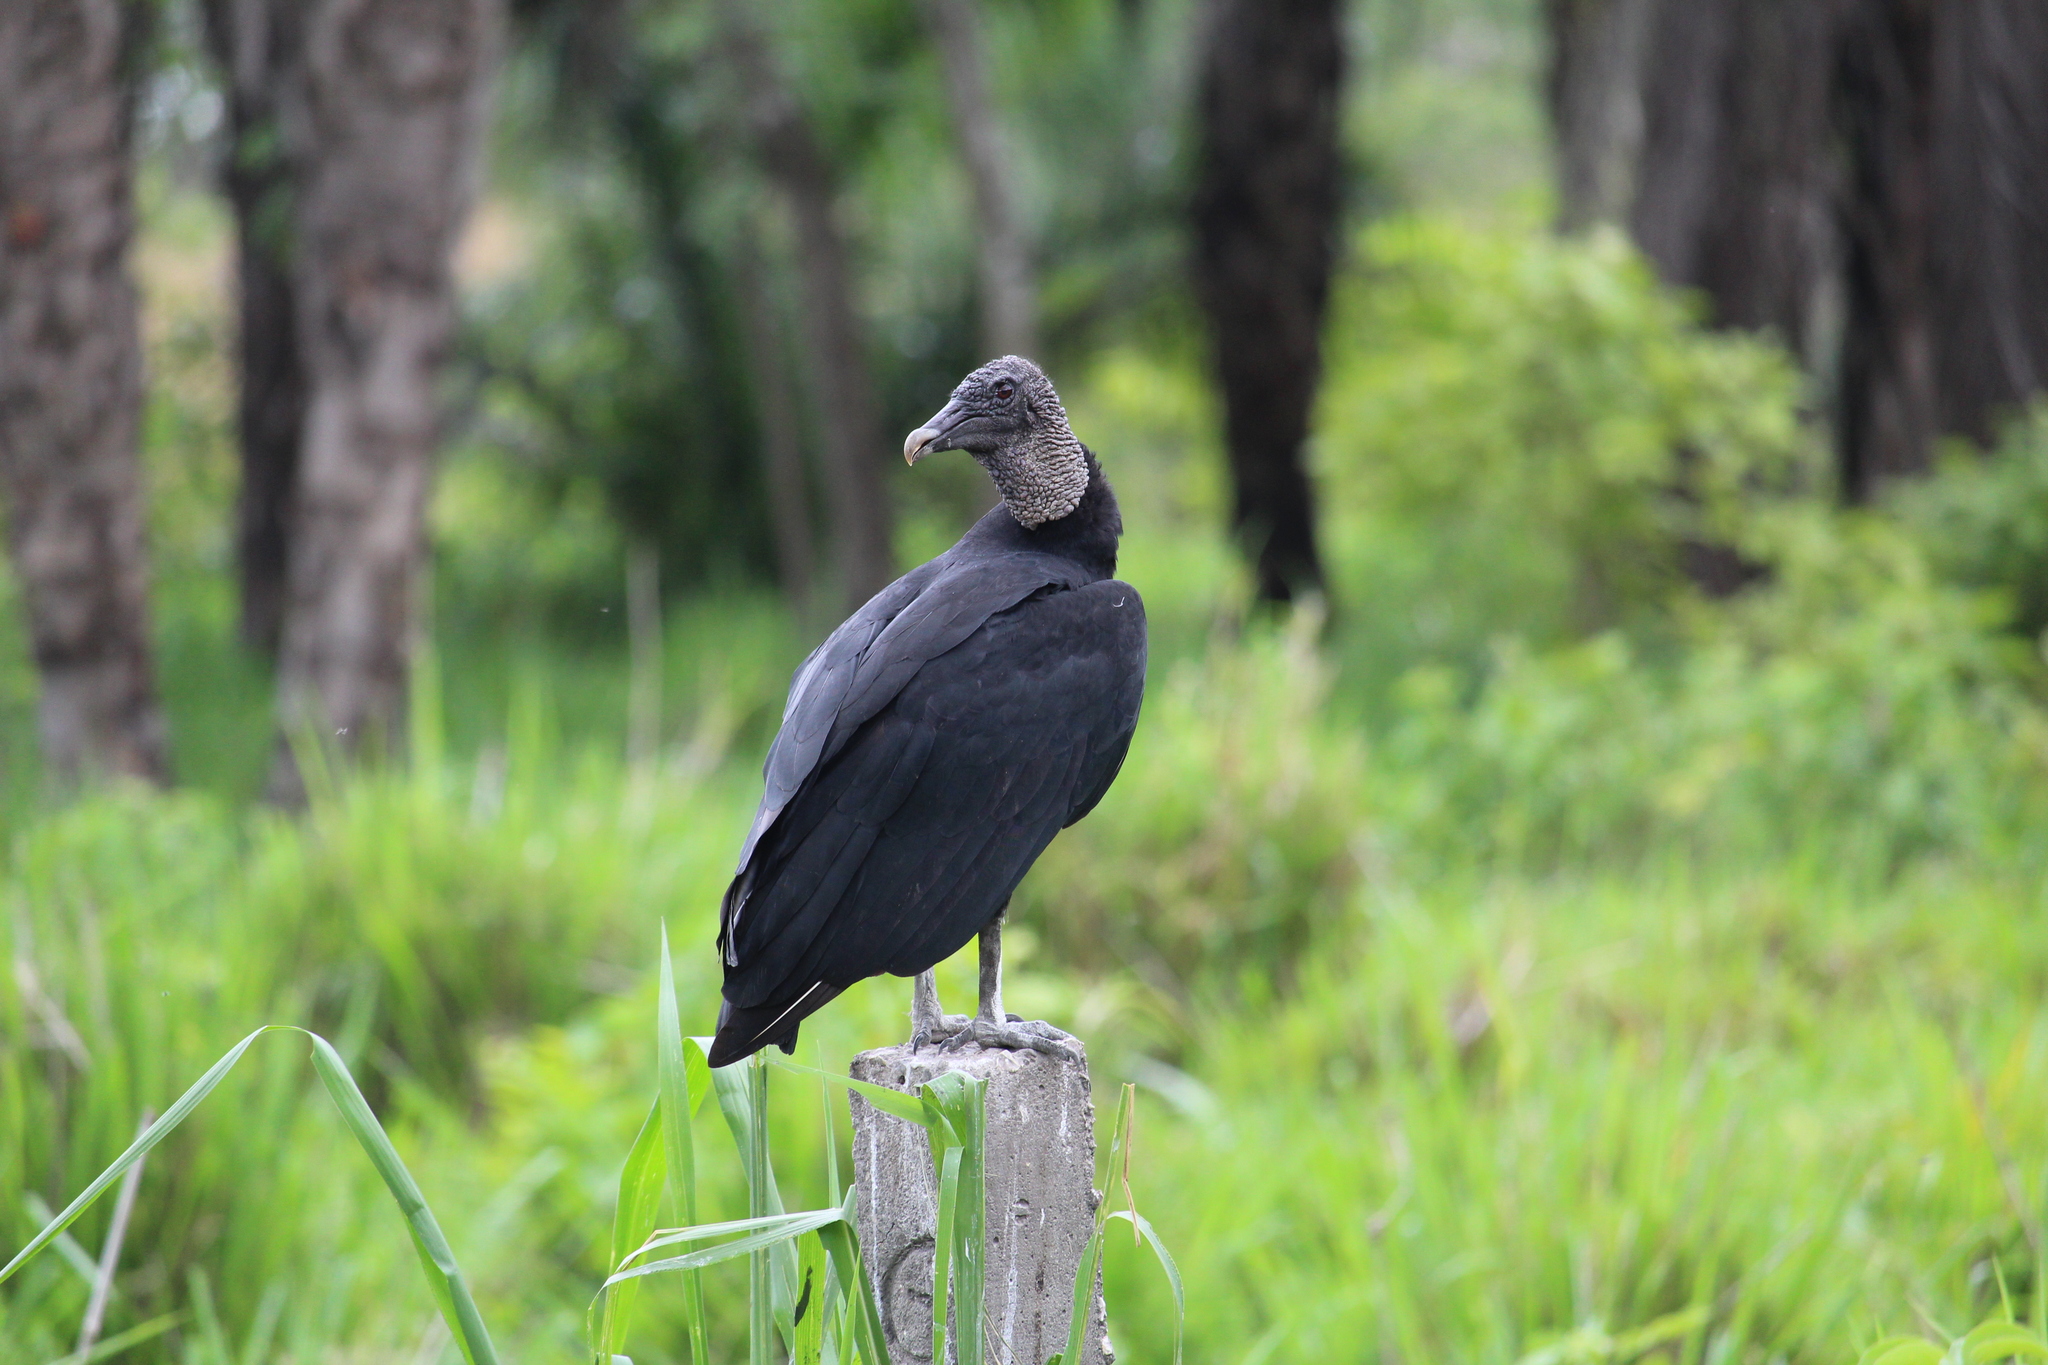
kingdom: Animalia
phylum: Chordata
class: Aves
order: Accipitriformes
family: Cathartidae
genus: Coragyps
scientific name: Coragyps atratus
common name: Black vulture
